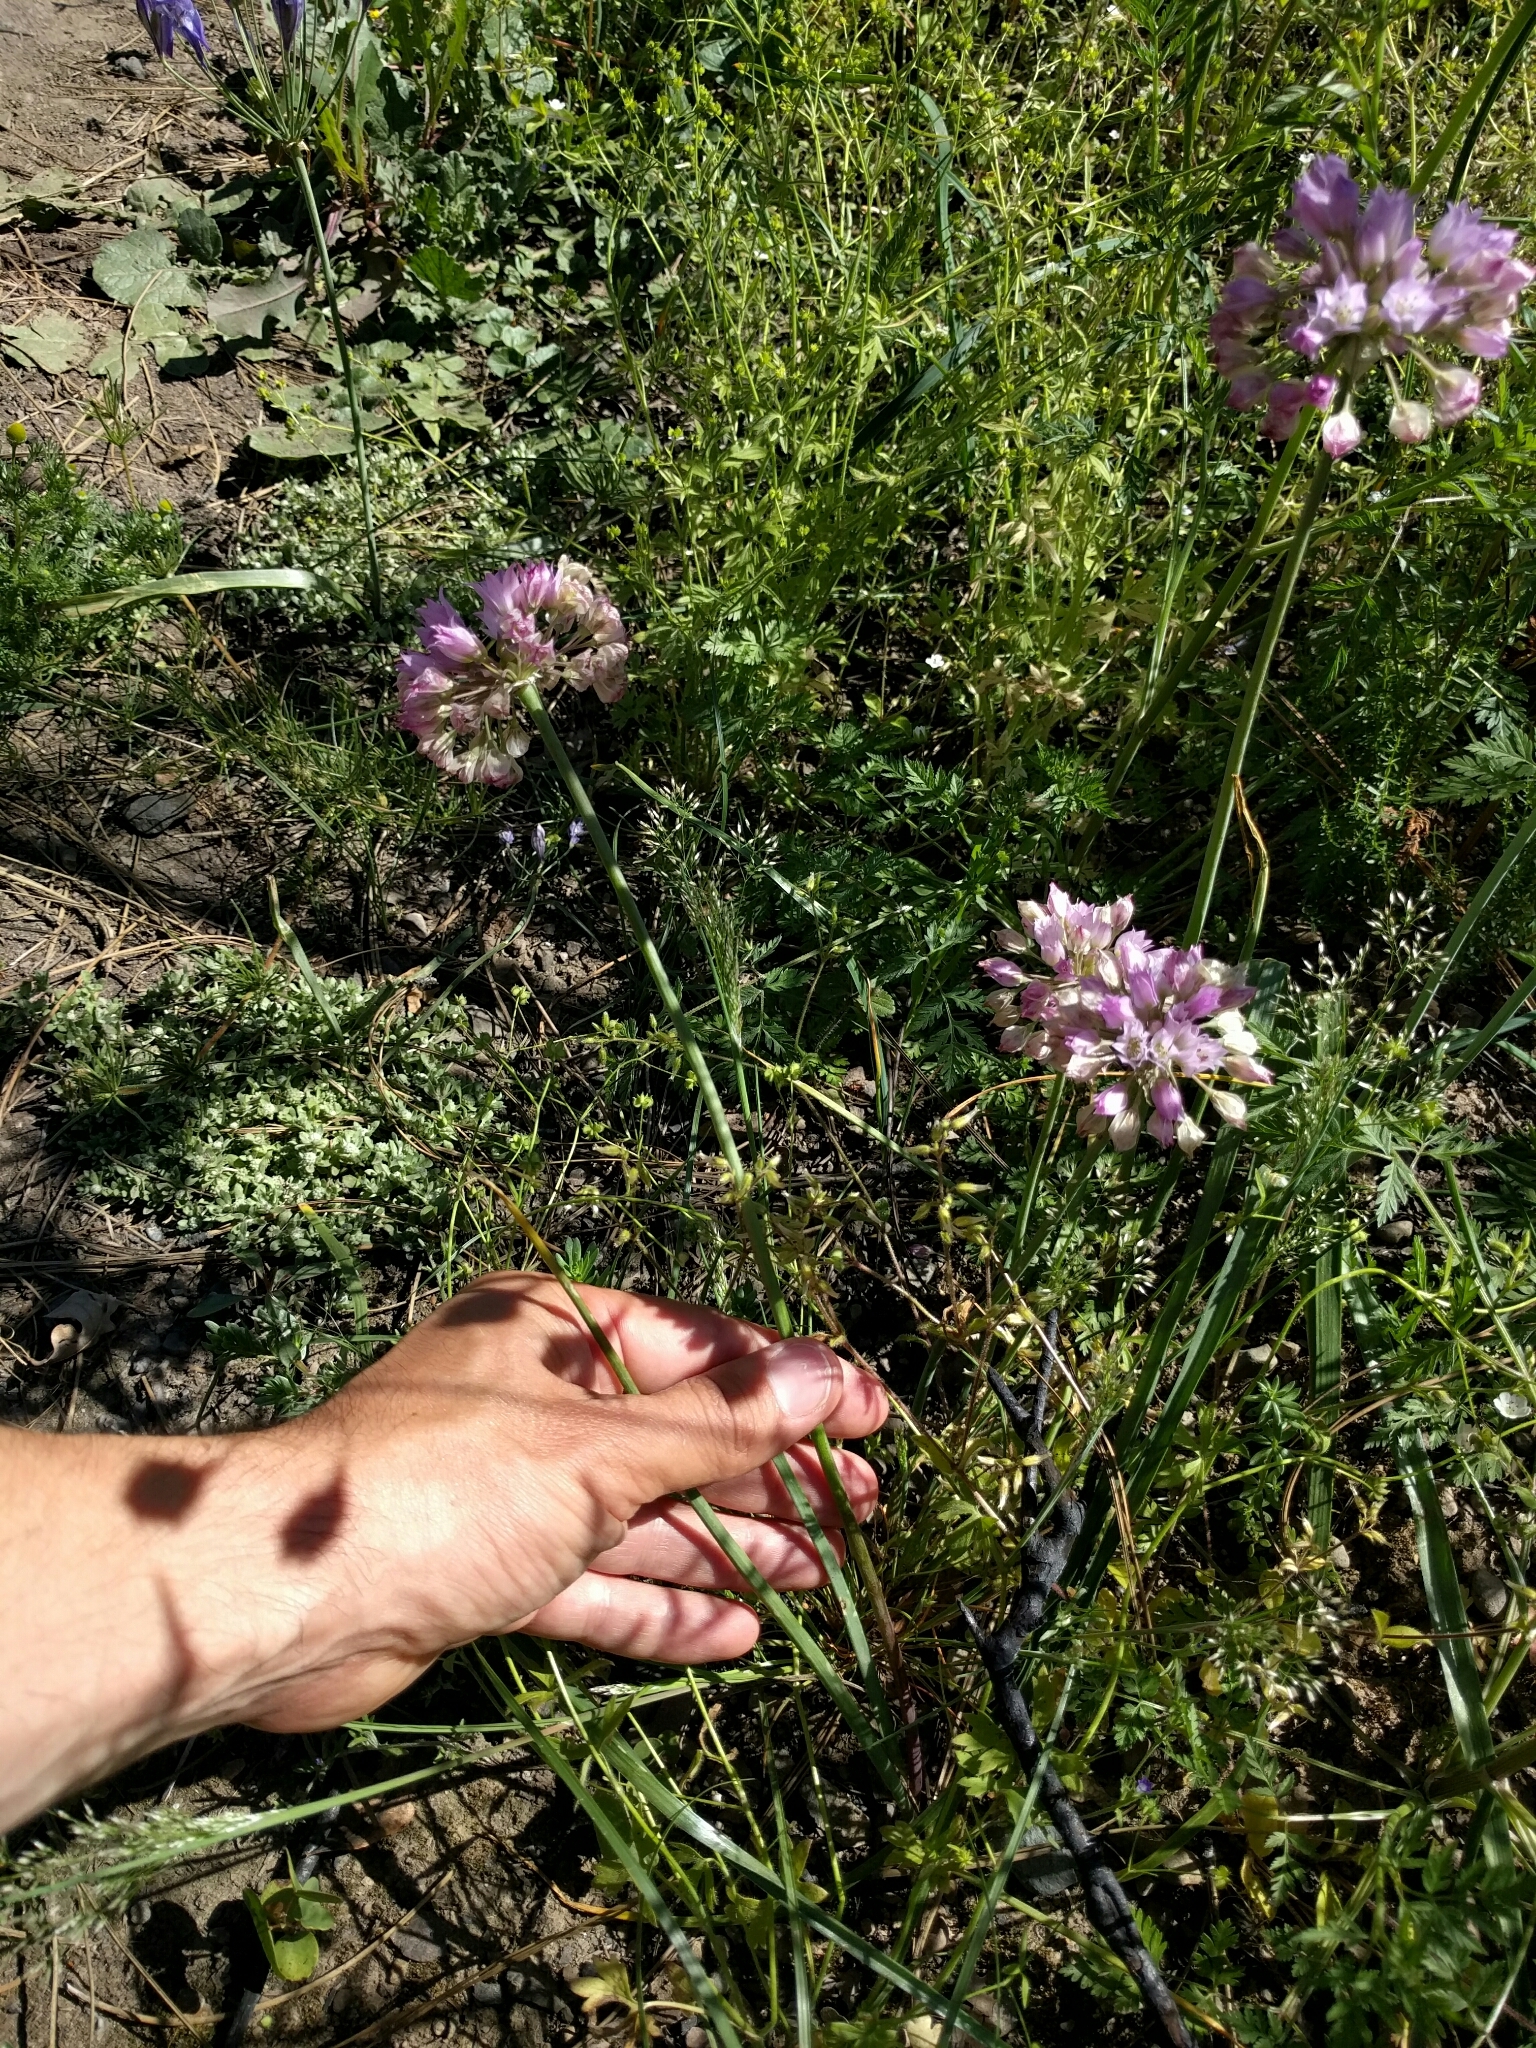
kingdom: Plantae
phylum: Tracheophyta
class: Liliopsida
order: Asparagales
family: Amaryllidaceae
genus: Allium
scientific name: Allium serra
